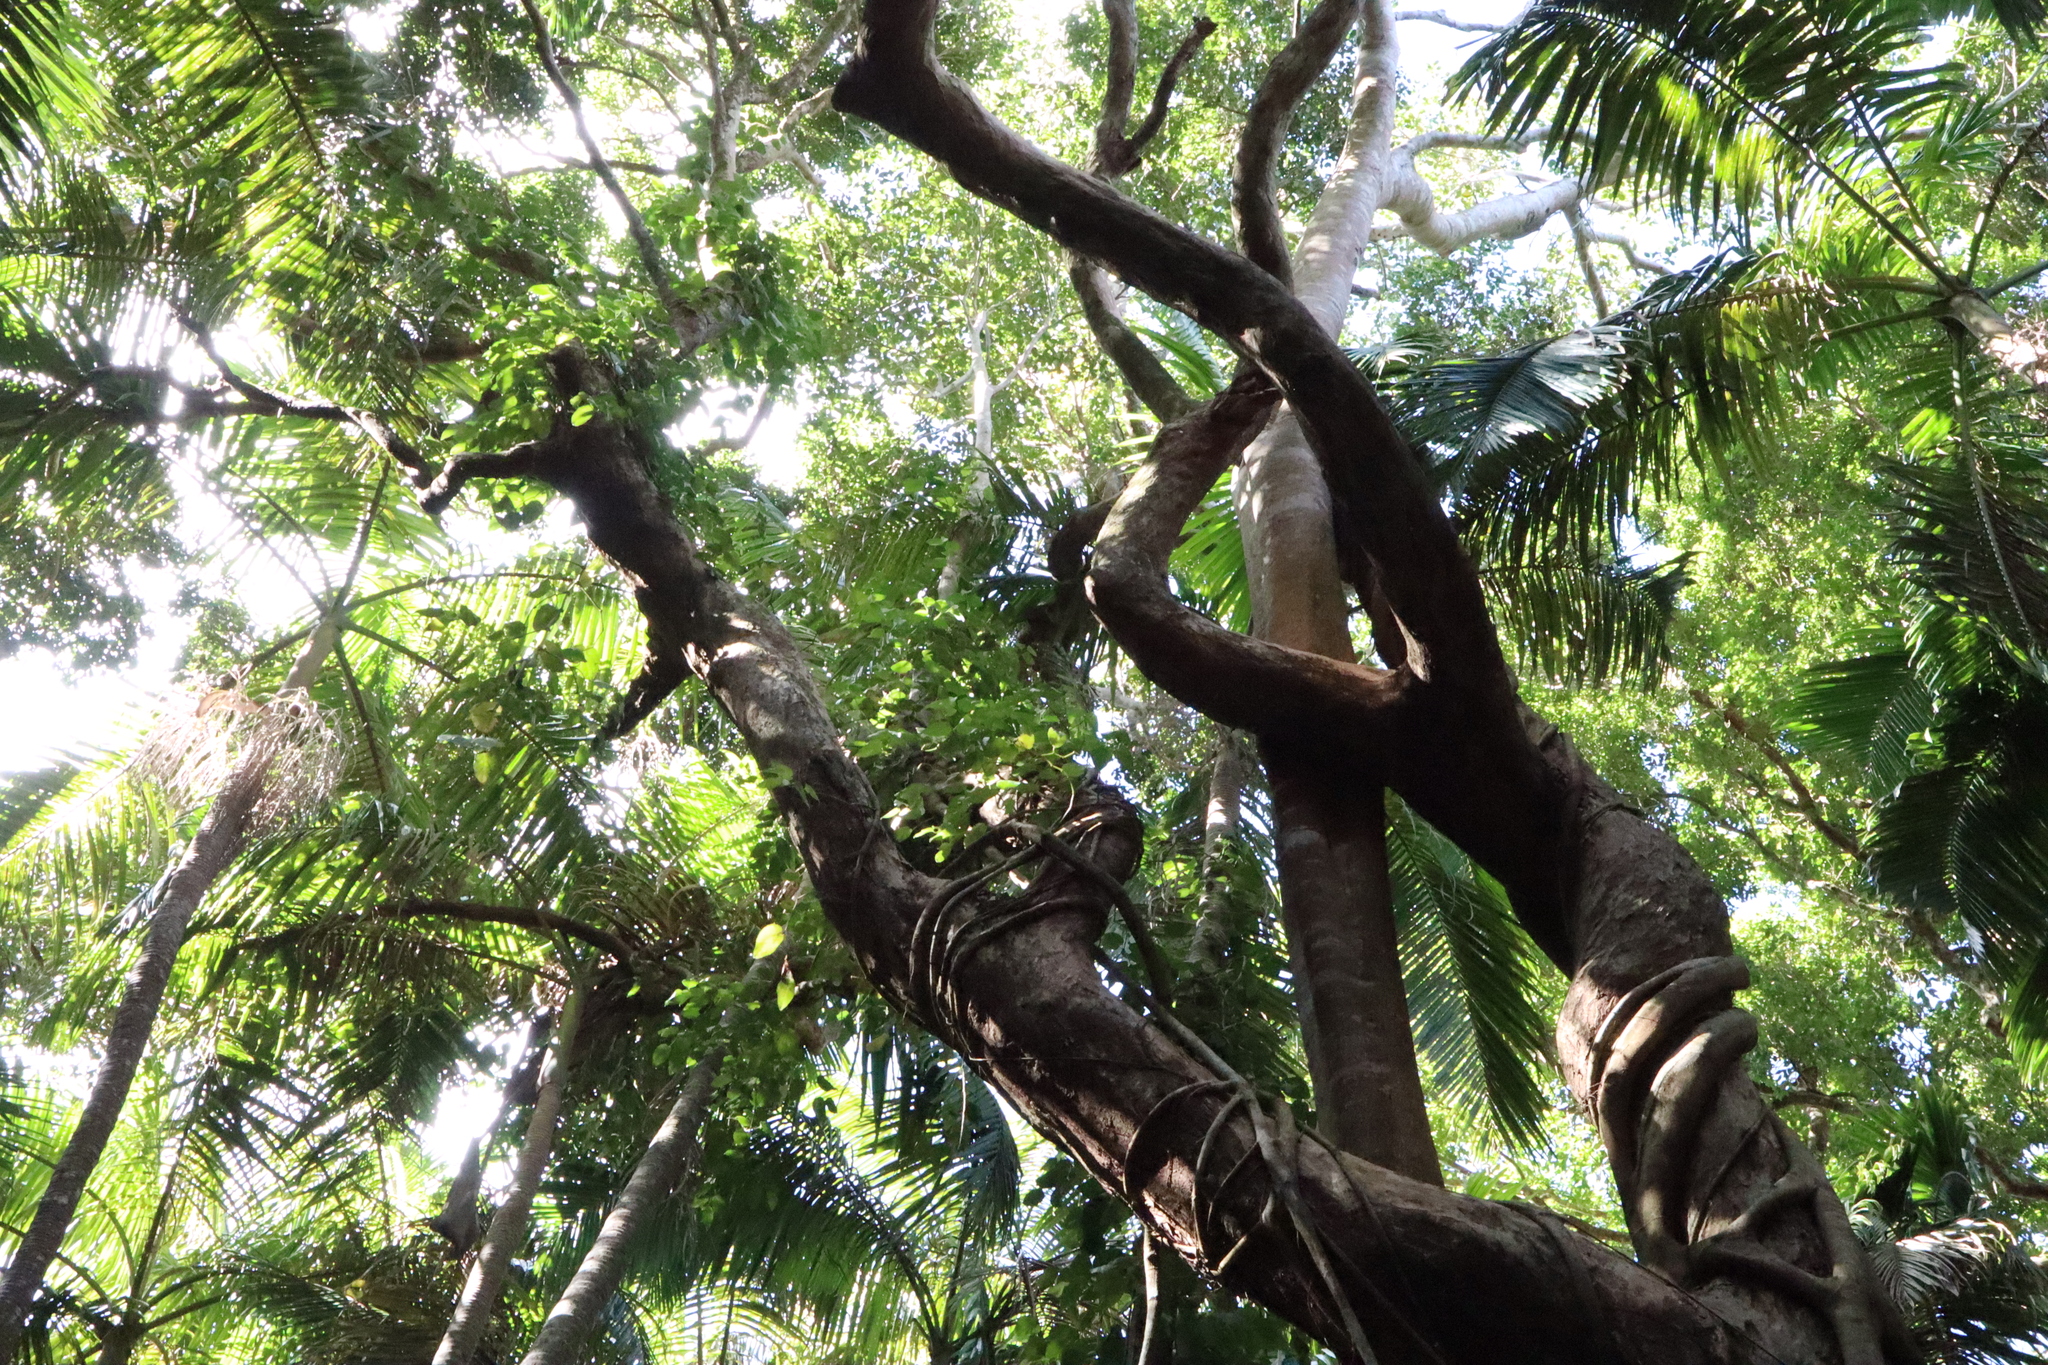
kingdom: Plantae
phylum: Tracheophyta
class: Magnoliopsida
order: Myrtales
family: Myrtaceae
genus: Syzygium
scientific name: Syzygium francisii
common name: Giant water-gum
